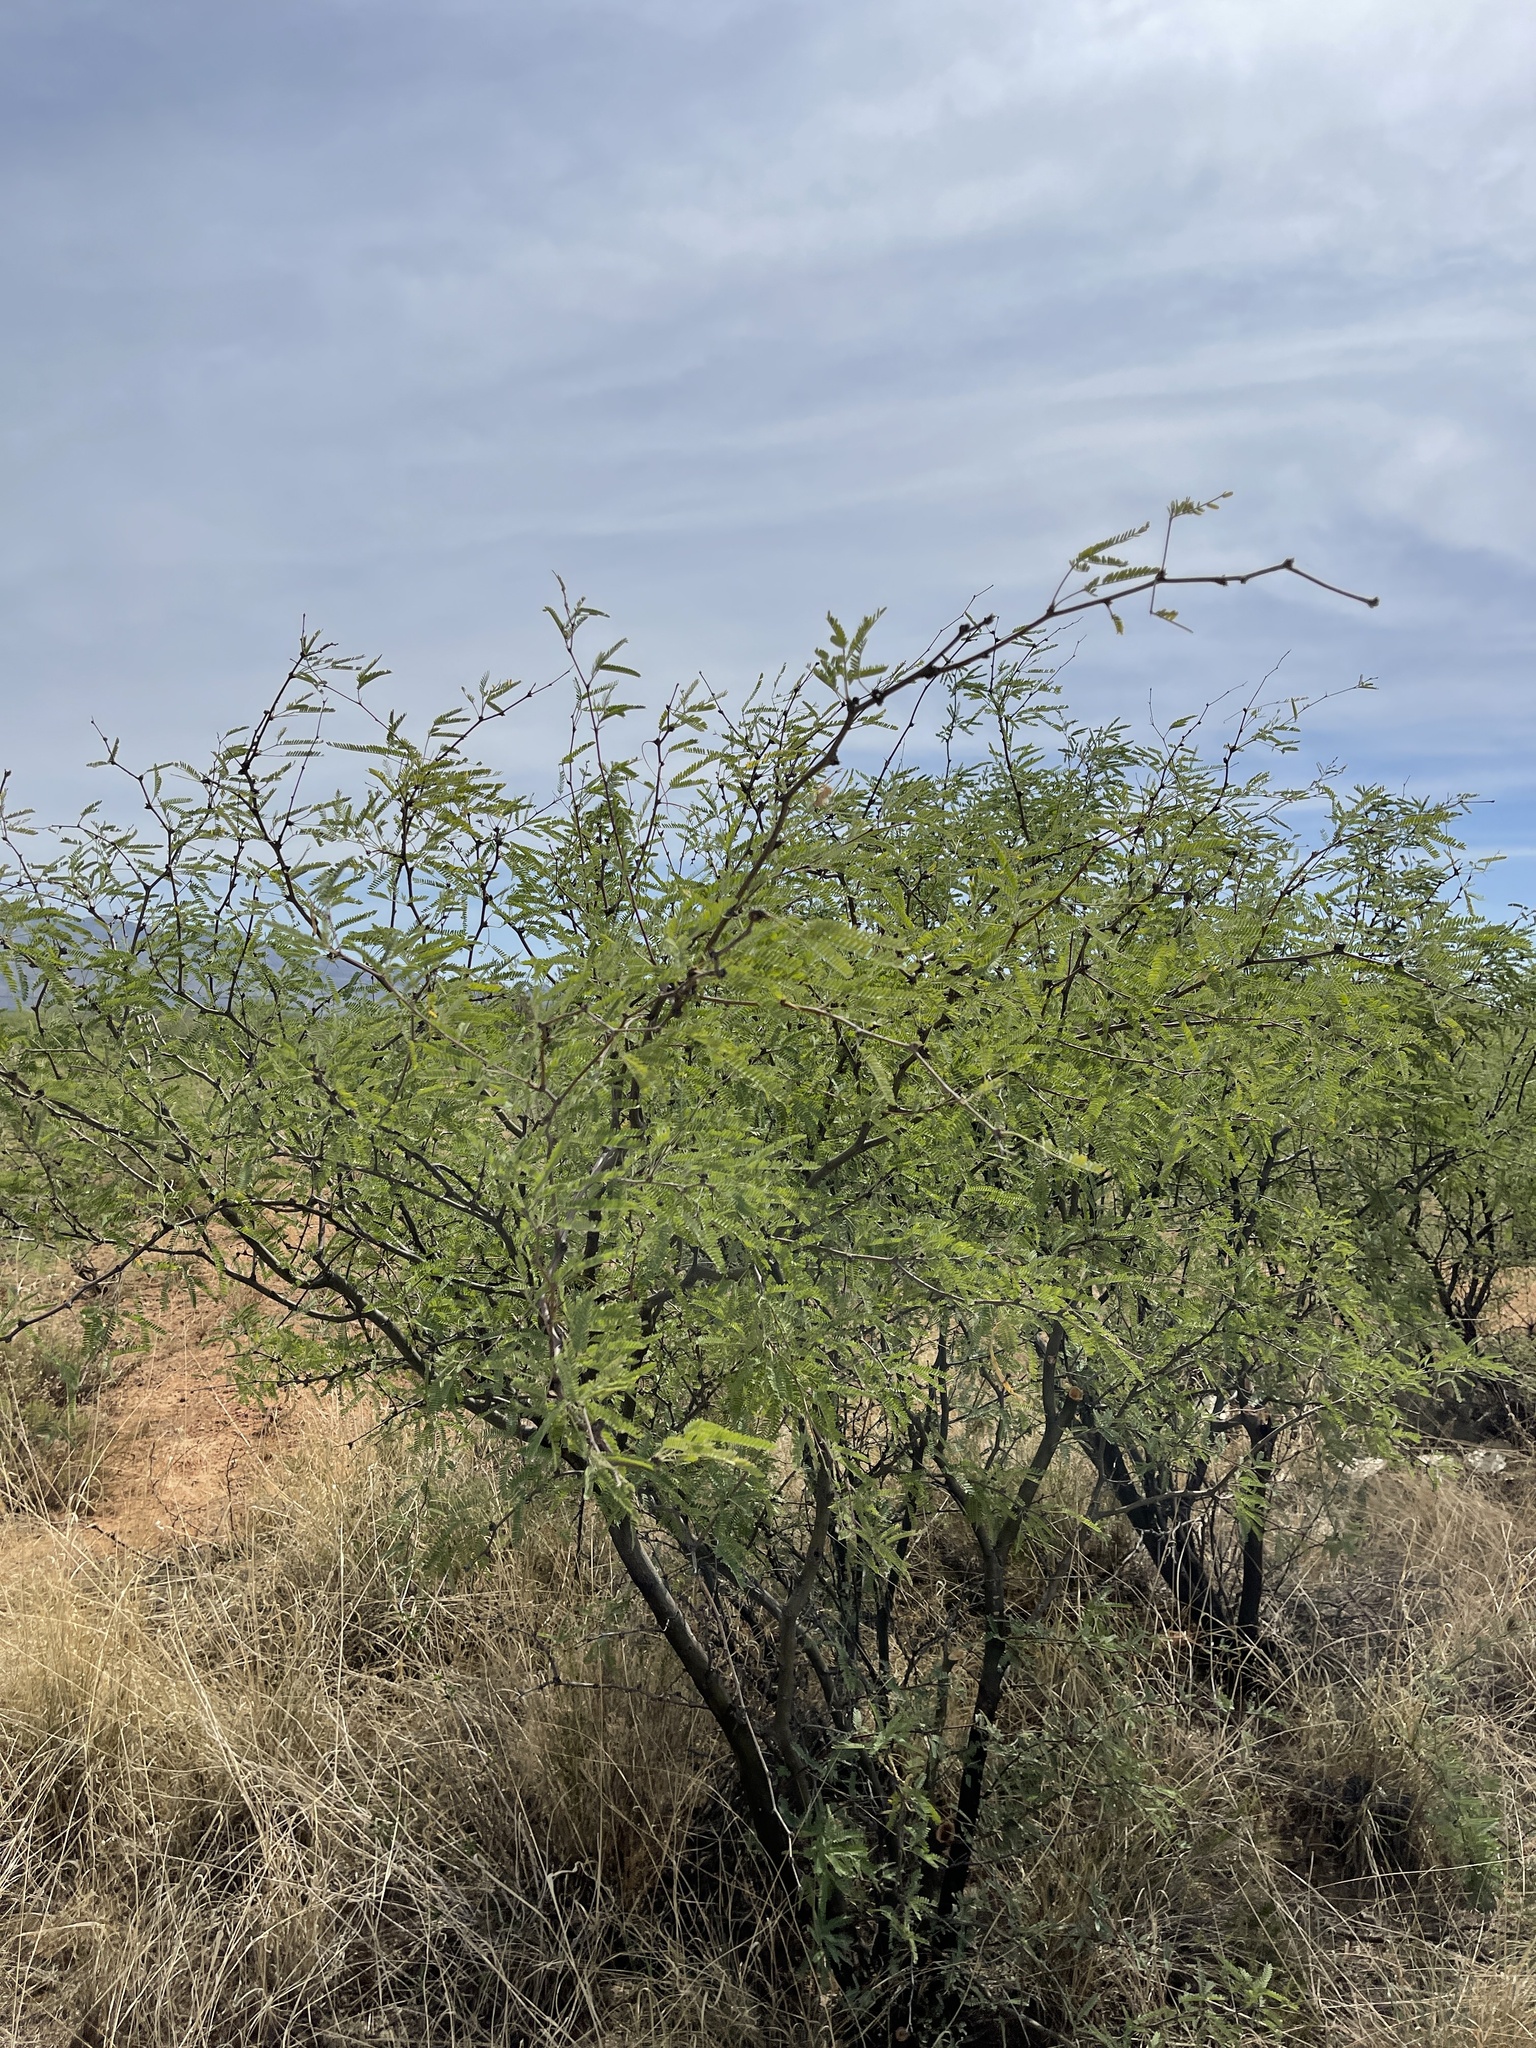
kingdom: Plantae
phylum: Tracheophyta
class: Magnoliopsida
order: Fabales
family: Fabaceae
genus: Prosopis
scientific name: Prosopis velutina
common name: Velvet mesquite
